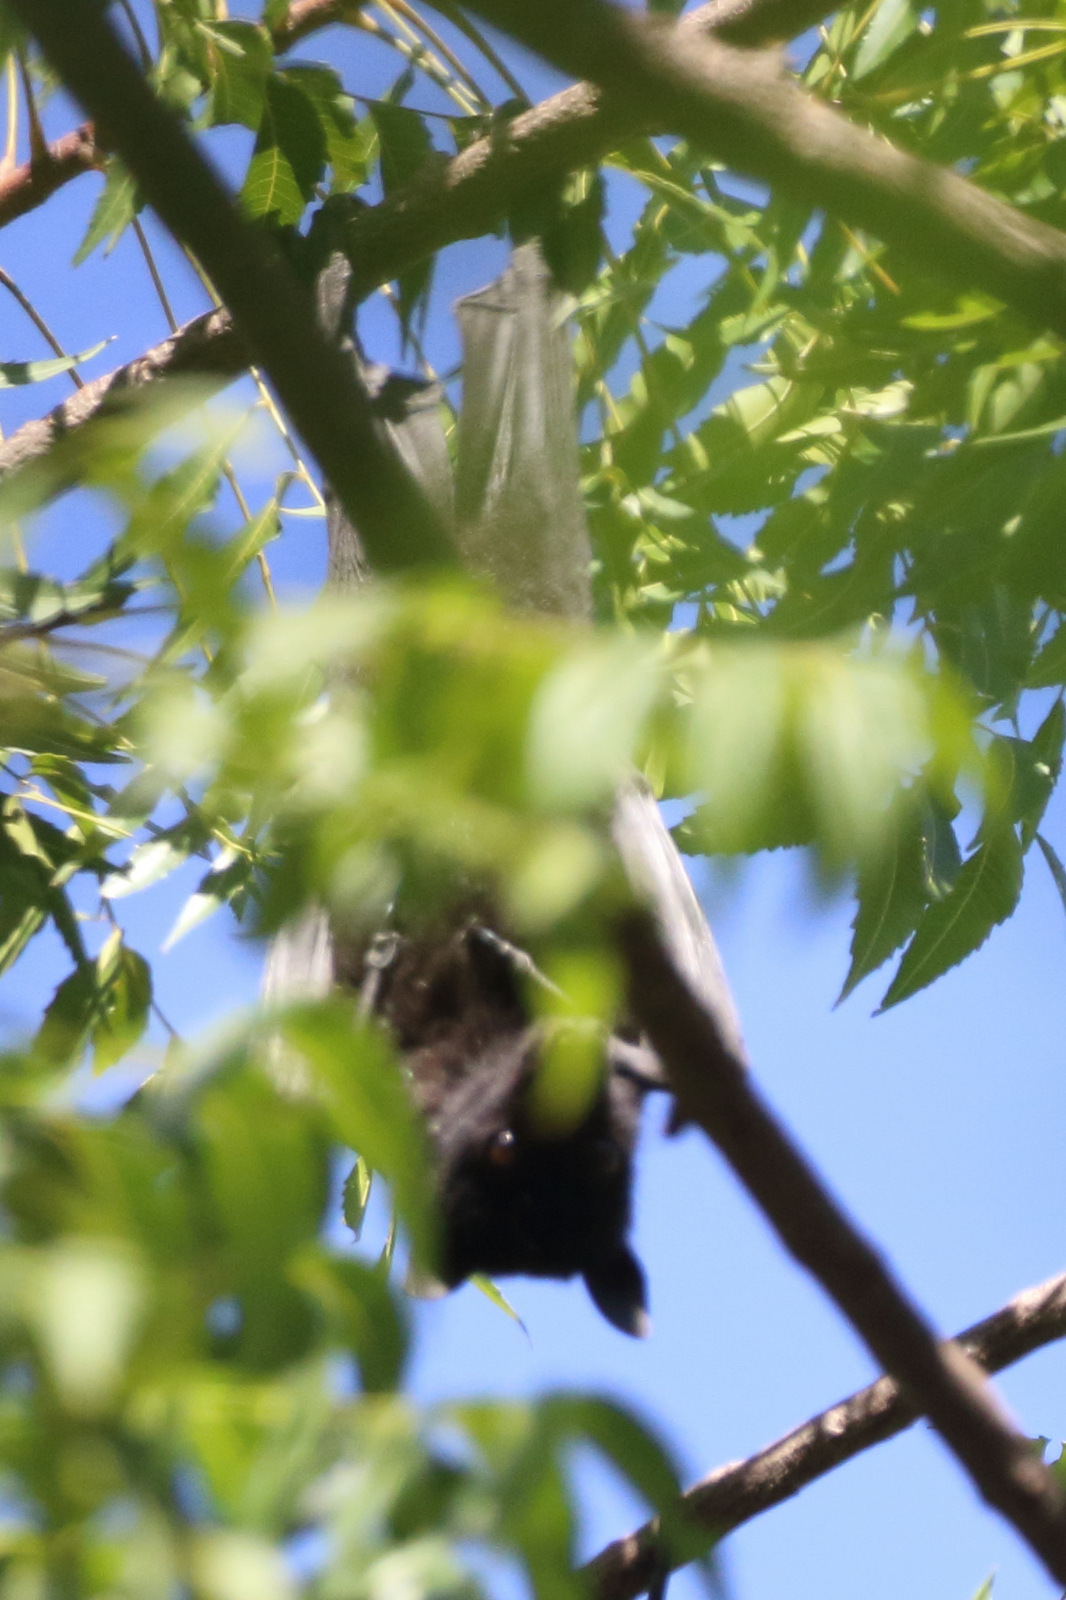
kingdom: Animalia
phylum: Chordata
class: Mammalia
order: Chiroptera
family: Pteropodidae
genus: Pteropus
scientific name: Pteropus alecto
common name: Black flying fox
